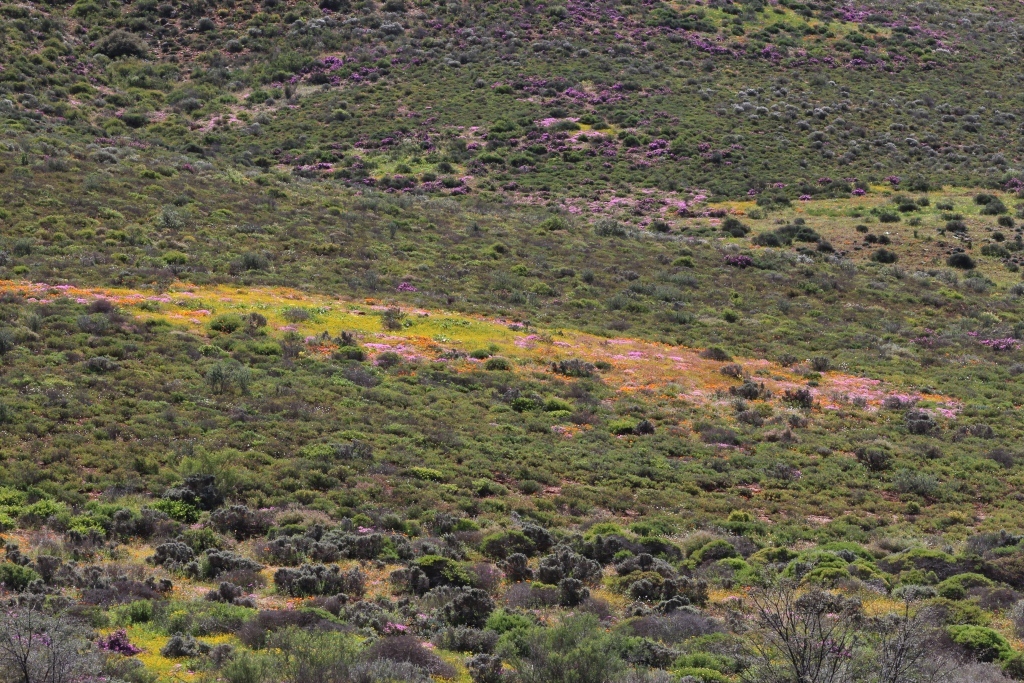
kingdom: Animalia
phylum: Arthropoda
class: Insecta
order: Blattodea
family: Hodotermitidae
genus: Microhodotermes
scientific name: Microhodotermes viator
